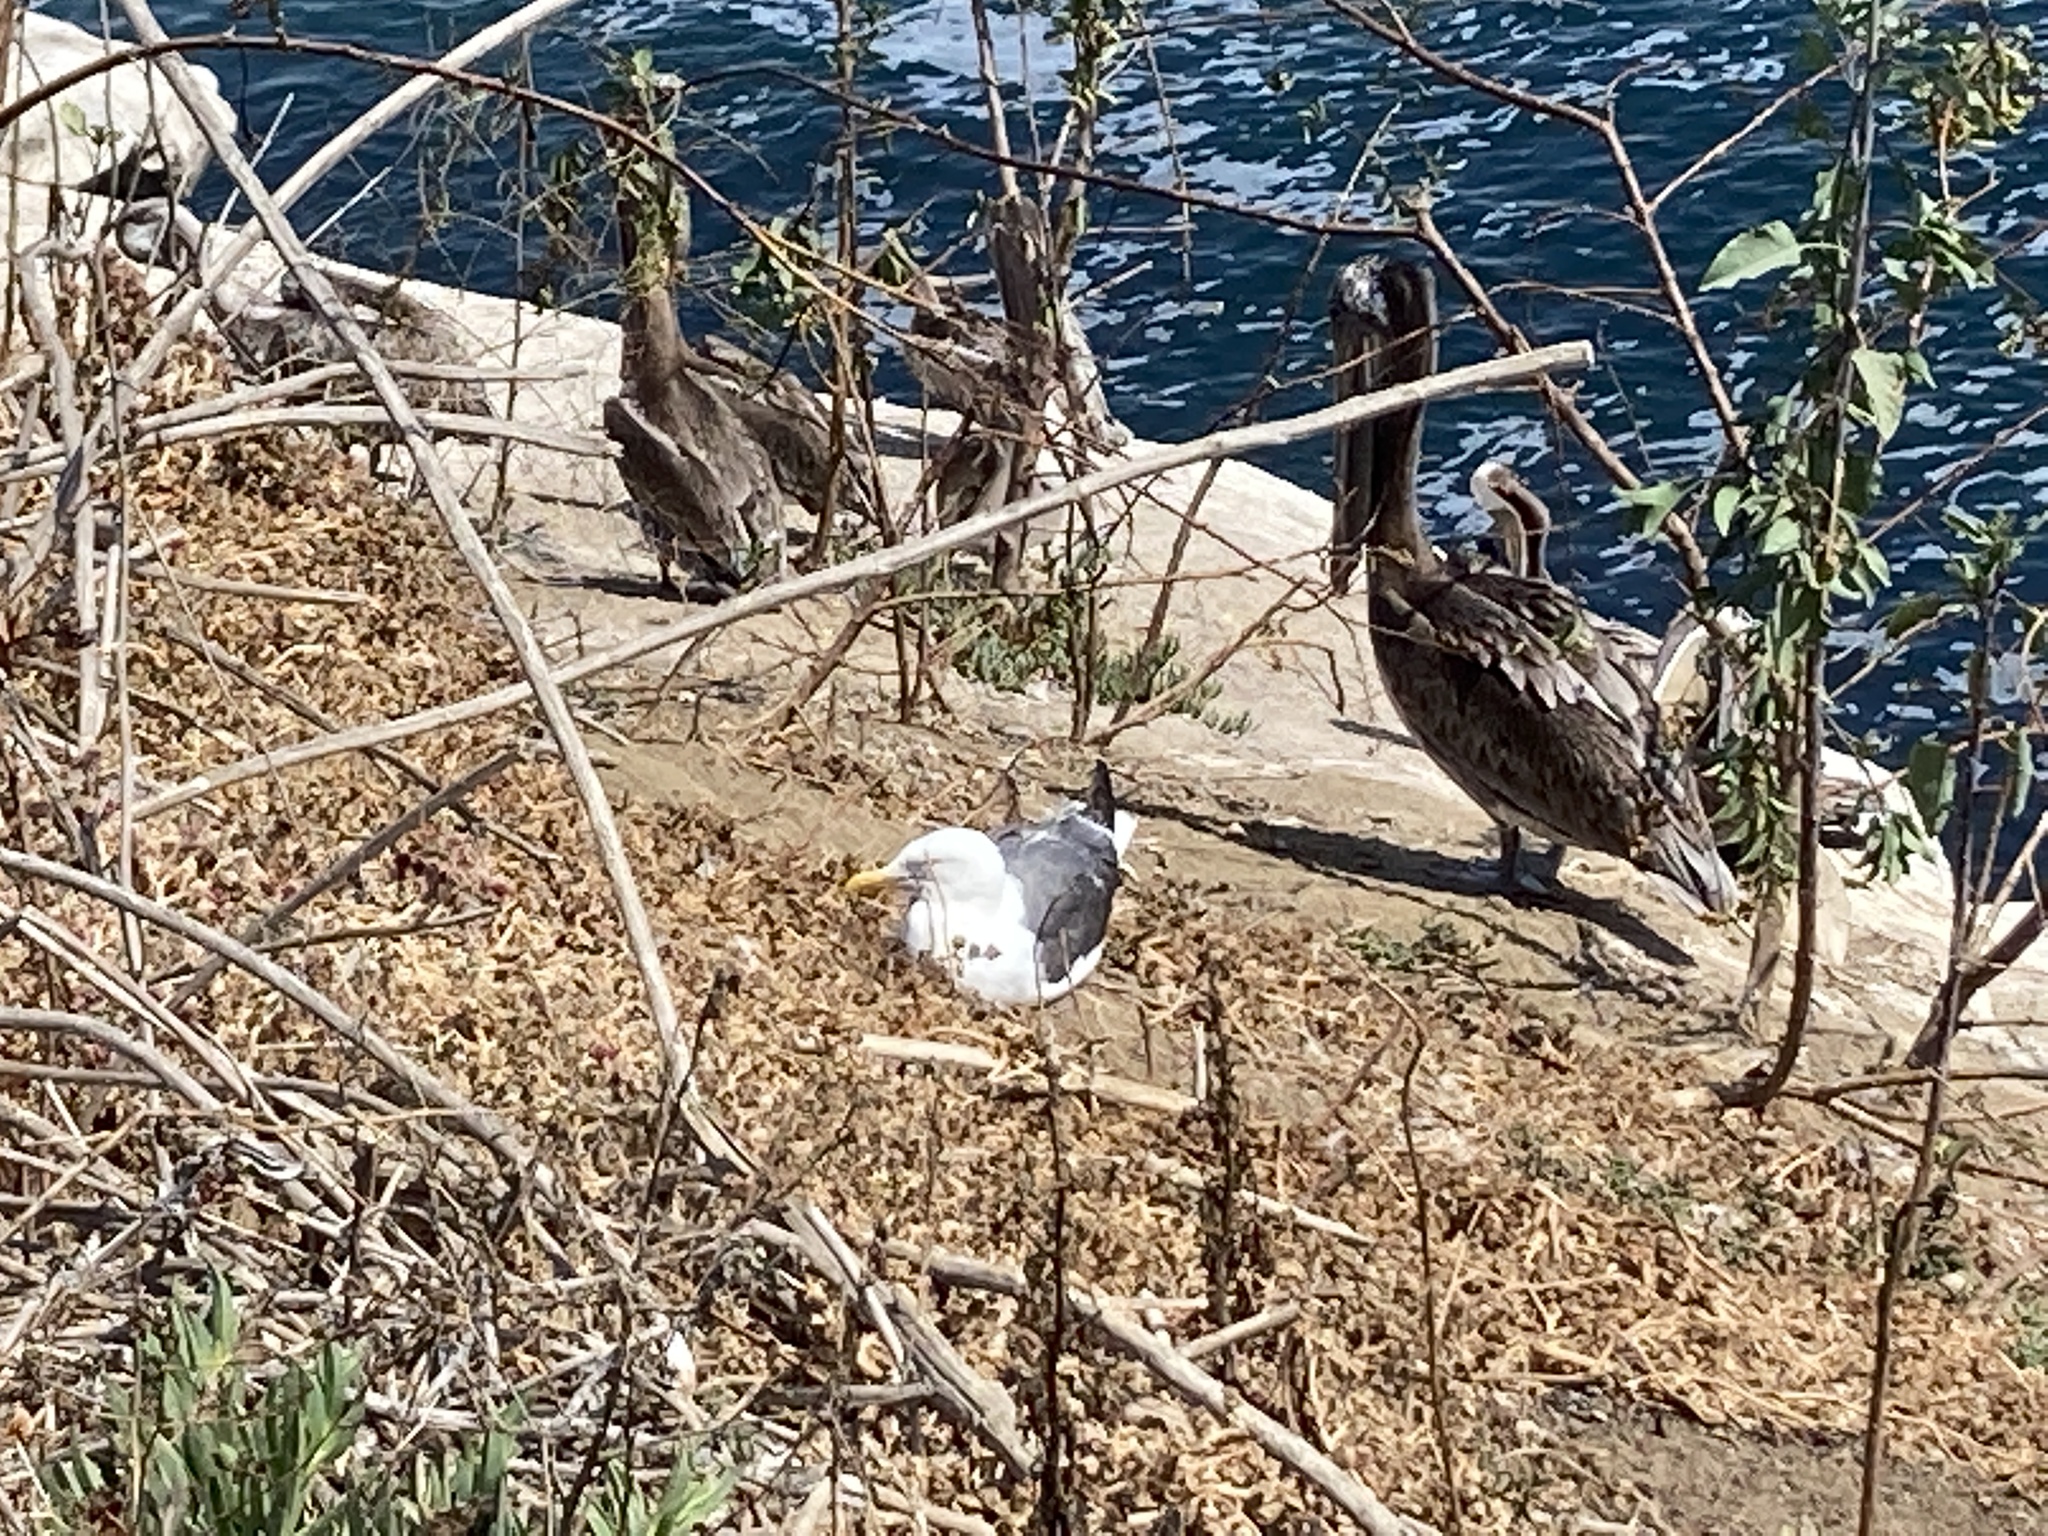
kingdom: Animalia
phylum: Chordata
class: Aves
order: Charadriiformes
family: Laridae
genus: Larus
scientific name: Larus occidentalis
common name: Western gull
